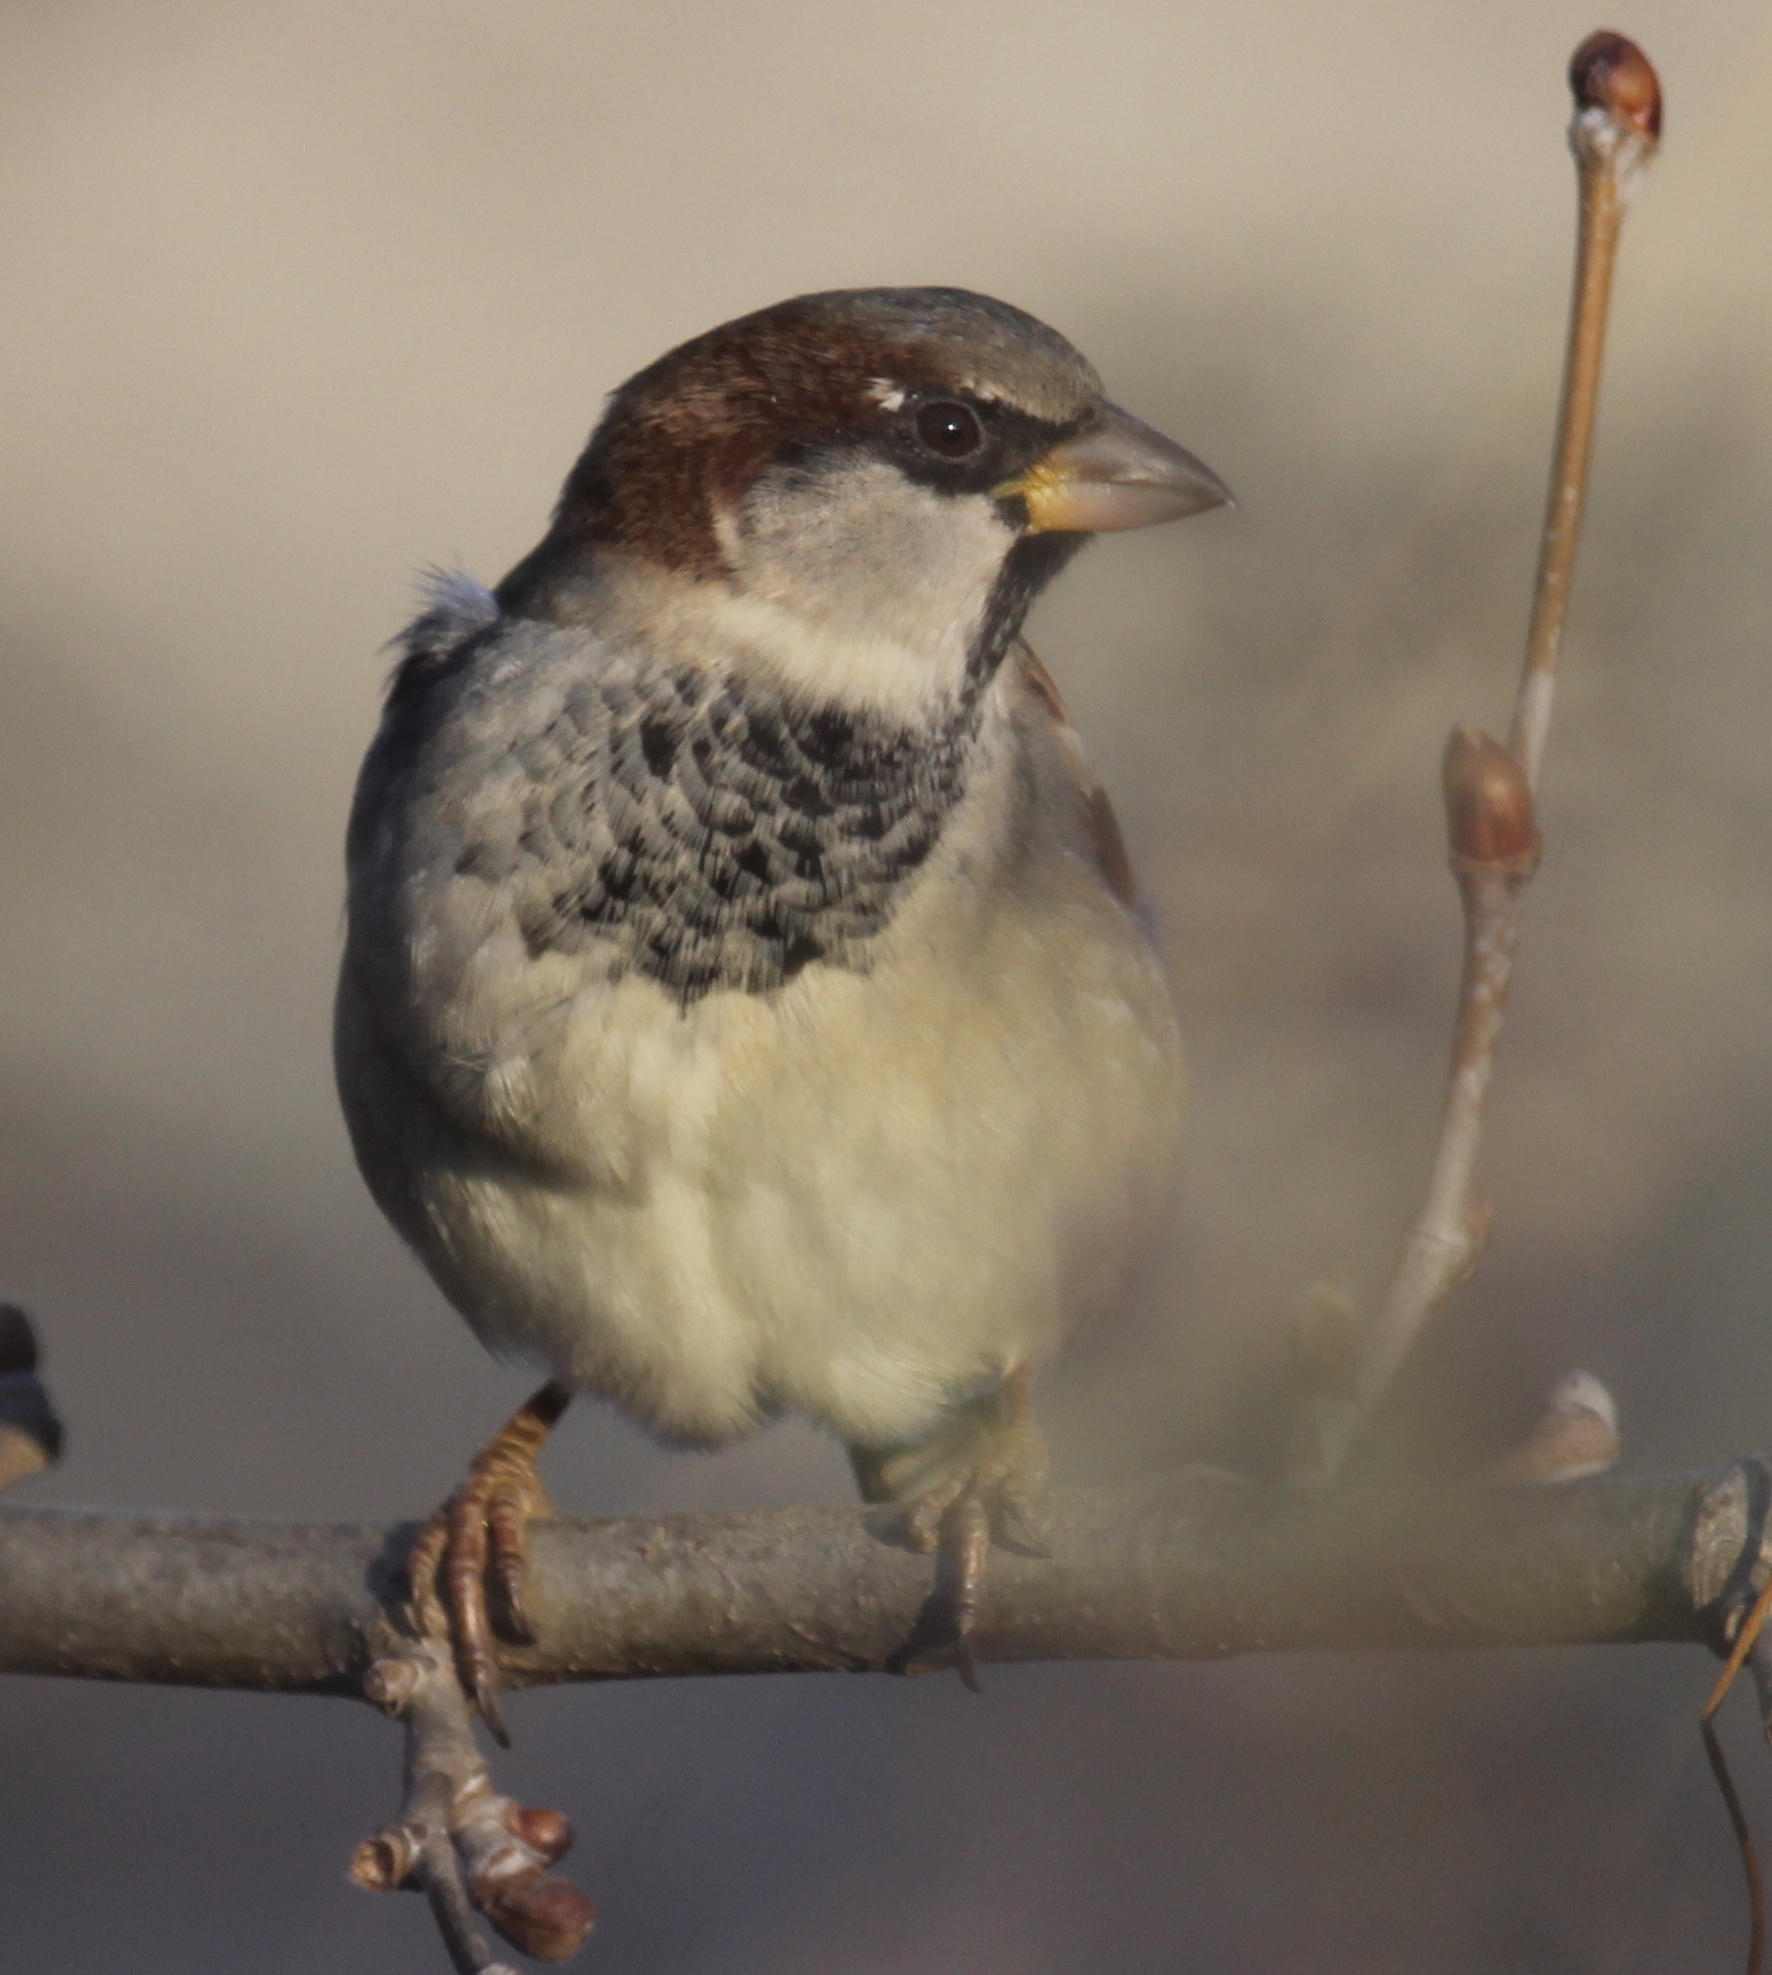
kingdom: Animalia
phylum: Chordata
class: Aves
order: Passeriformes
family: Passeridae
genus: Passer
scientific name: Passer domesticus
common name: House sparrow
